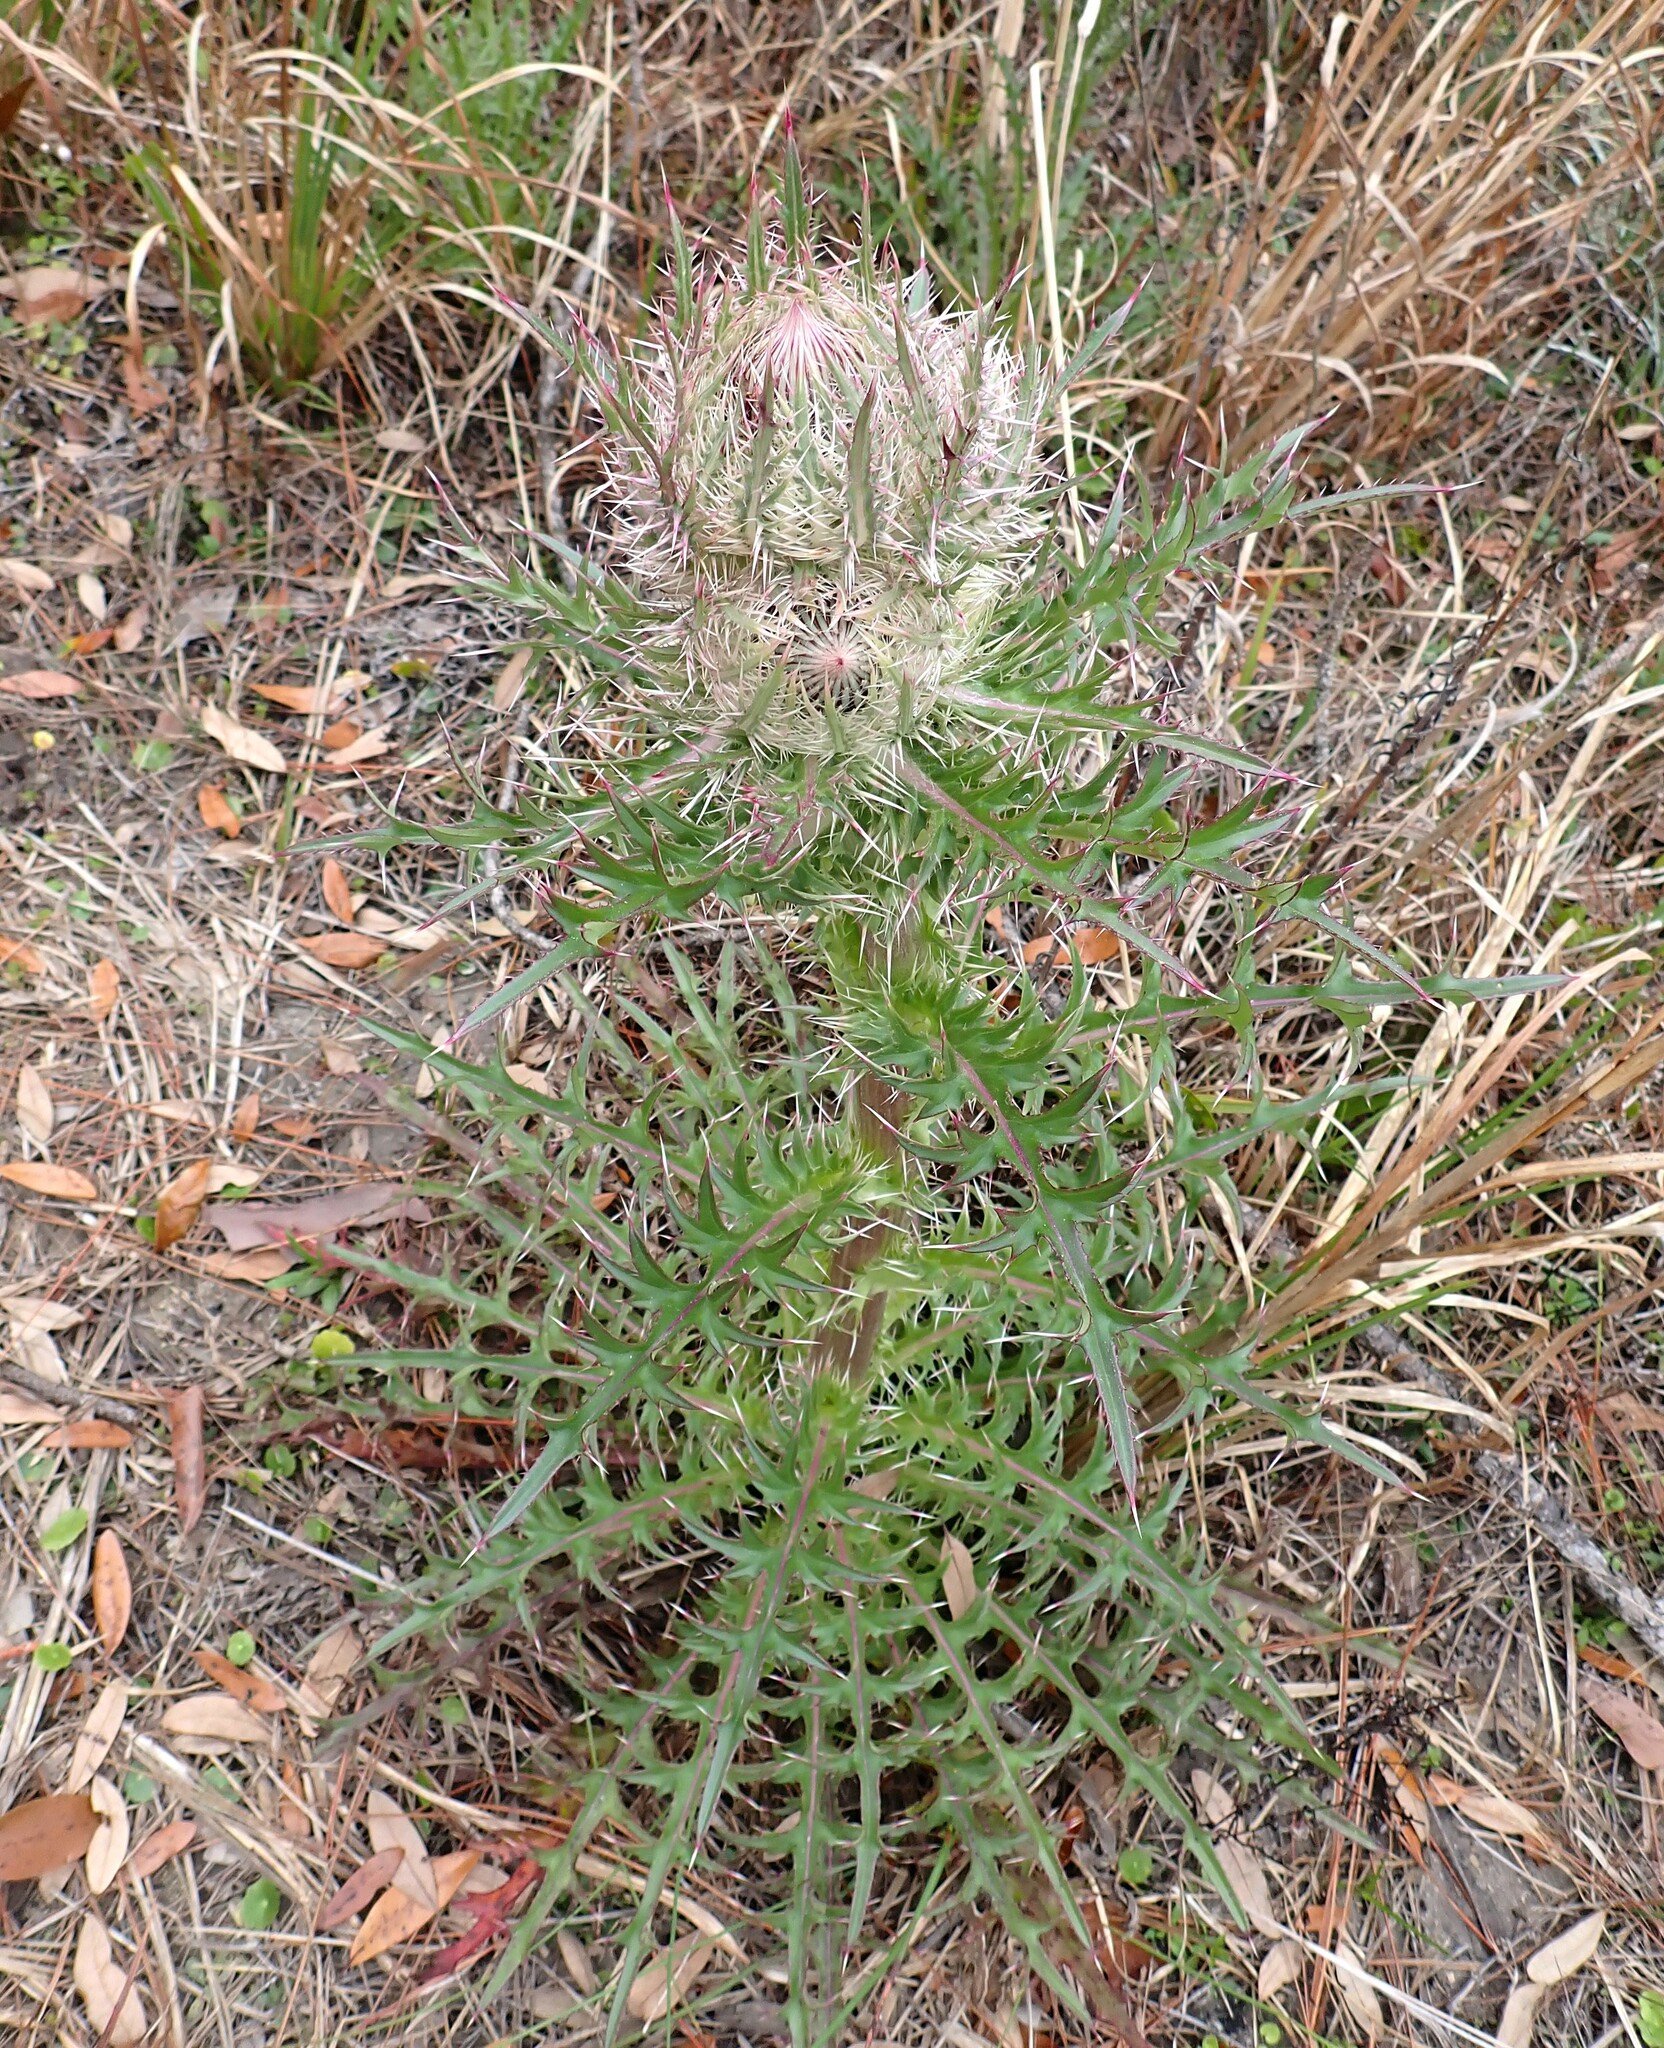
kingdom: Plantae
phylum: Tracheophyta
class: Magnoliopsida
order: Asterales
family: Asteraceae
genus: Cirsium
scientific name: Cirsium horridulum
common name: Bristly thistle
